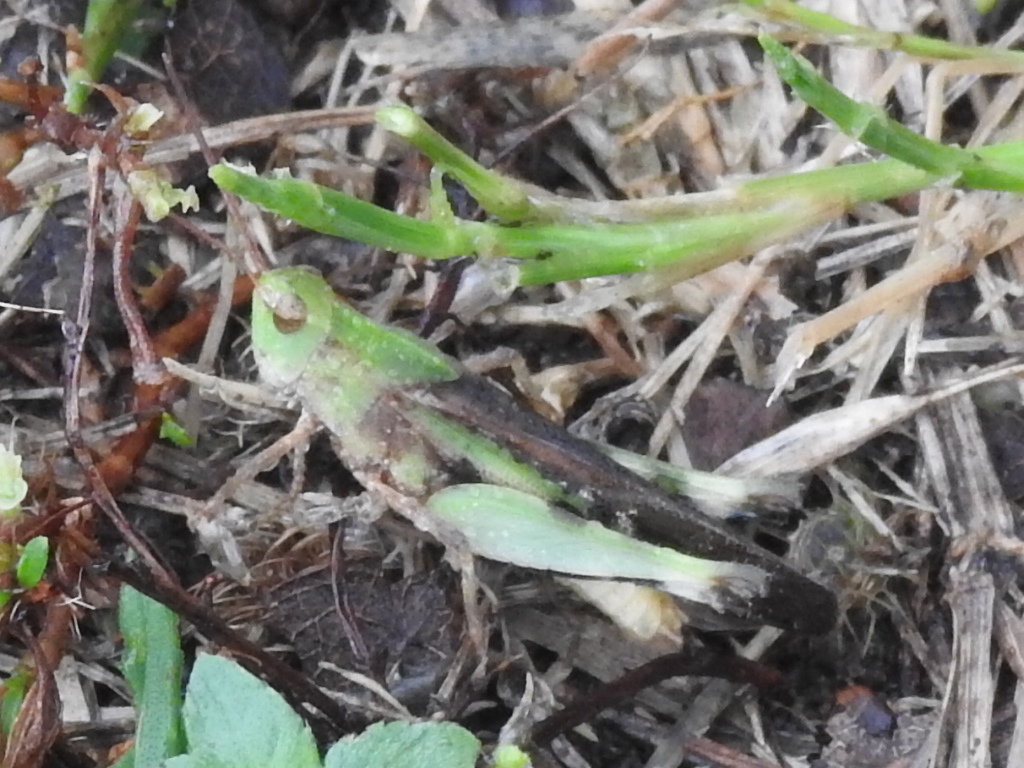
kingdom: Animalia
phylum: Arthropoda
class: Insecta
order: Orthoptera
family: Acrididae
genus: Chortophaga
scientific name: Chortophaga viridifasciata
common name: Green-striped grasshopper
